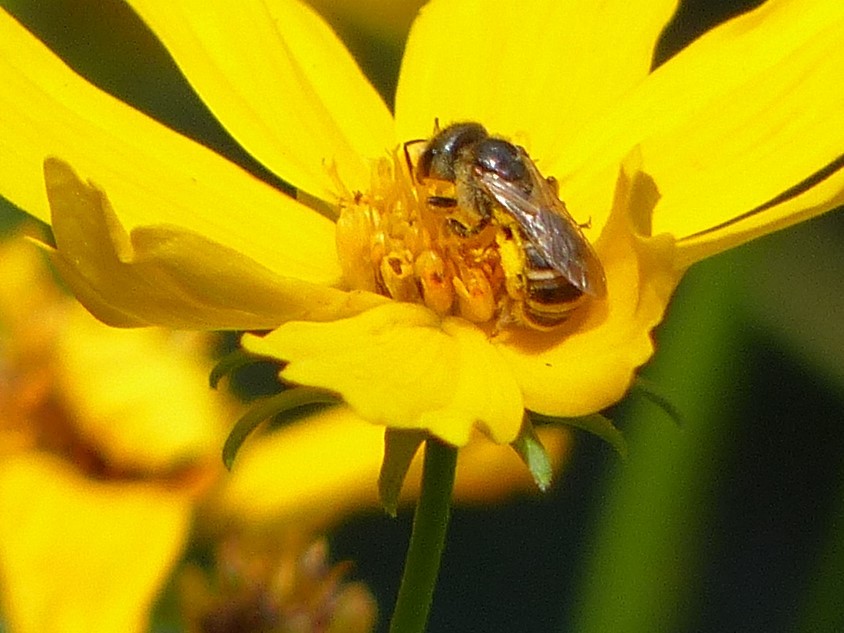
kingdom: Animalia
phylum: Arthropoda
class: Insecta
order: Hymenoptera
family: Halictidae
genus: Halictus
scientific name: Halictus ligatus
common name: Ligated furrow bee
